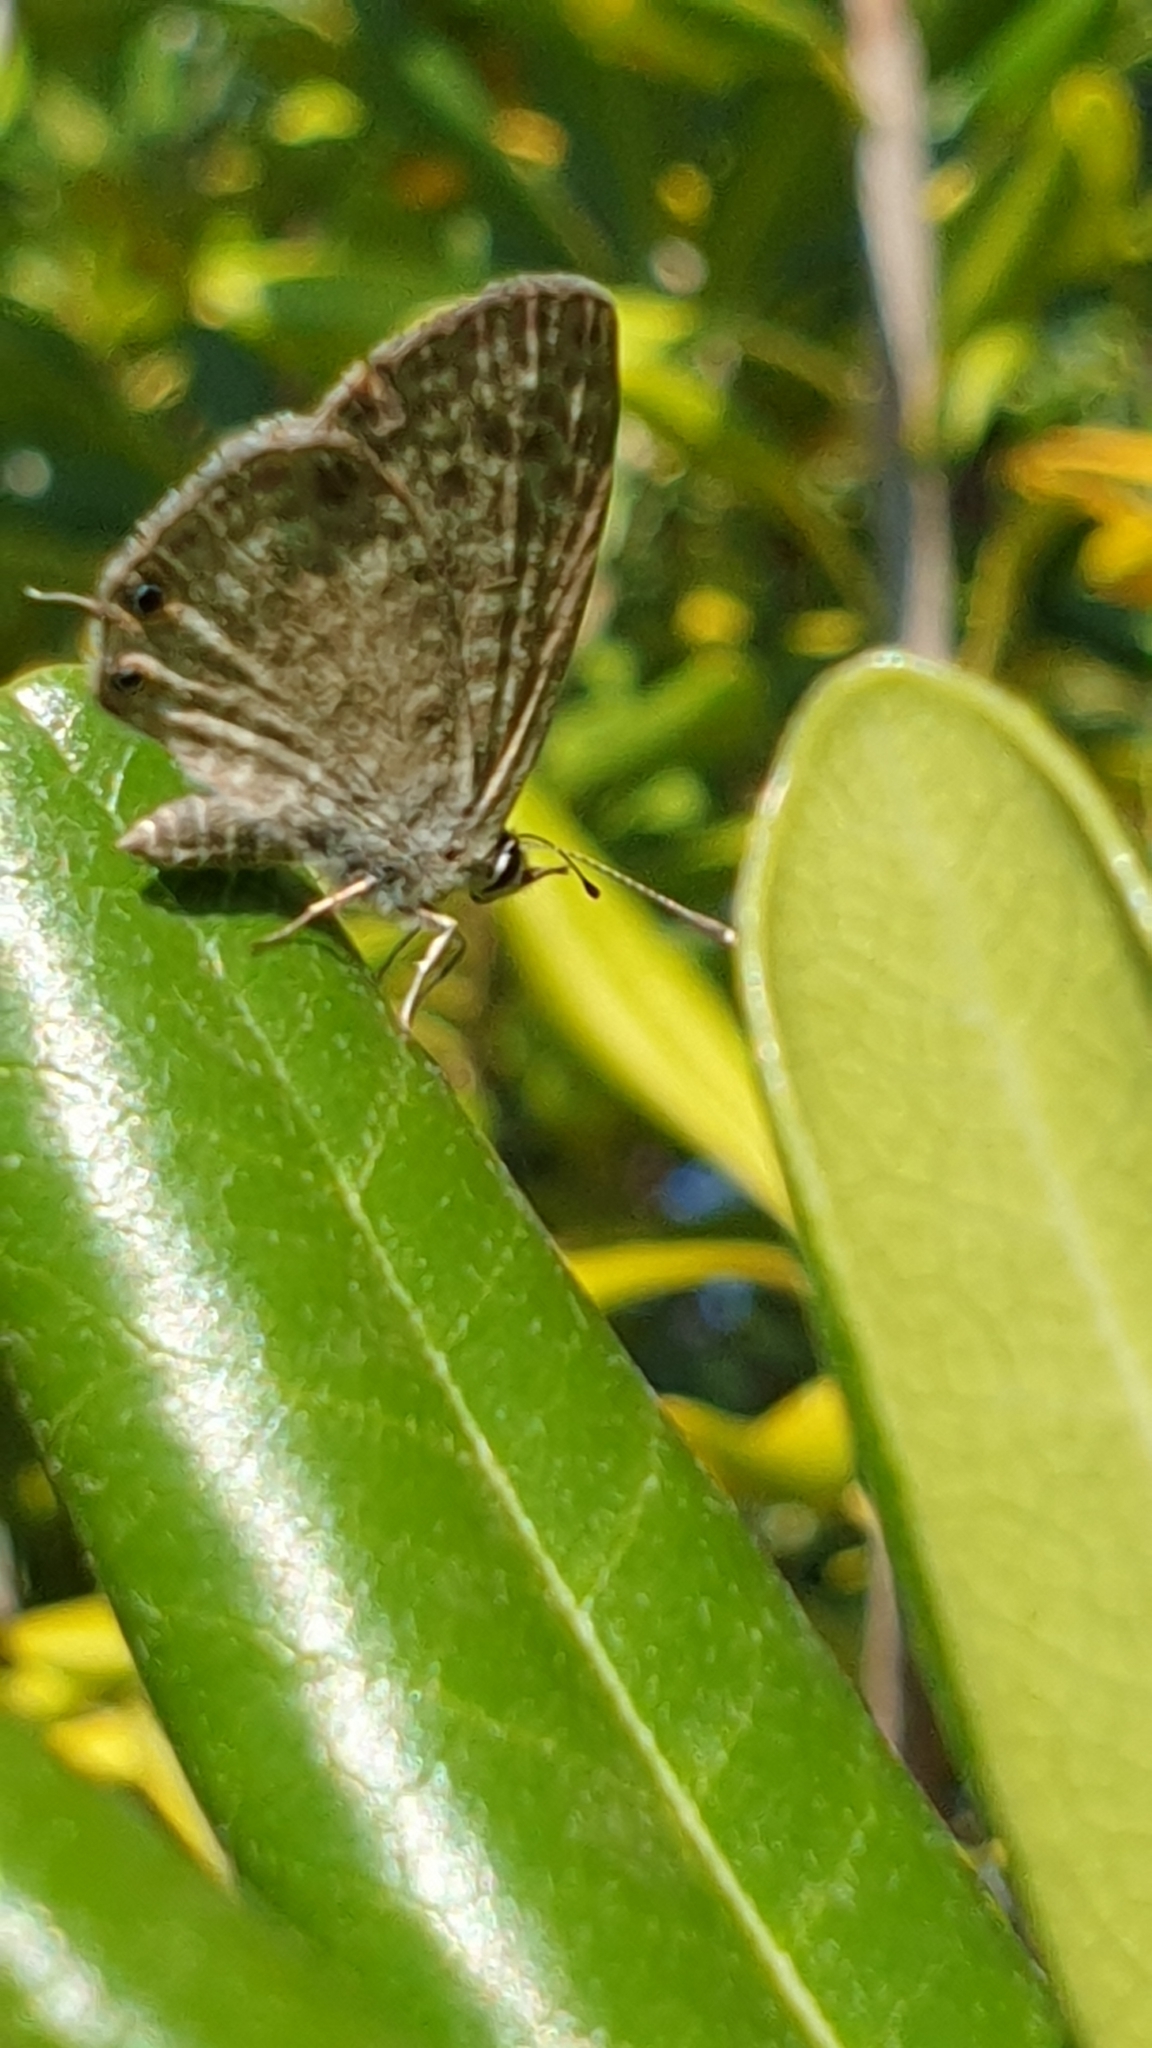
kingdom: Animalia
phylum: Arthropoda
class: Insecta
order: Lepidoptera
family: Lycaenidae
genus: Leptotes
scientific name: Leptotes pirithous
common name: Lang's short-tailed blue
